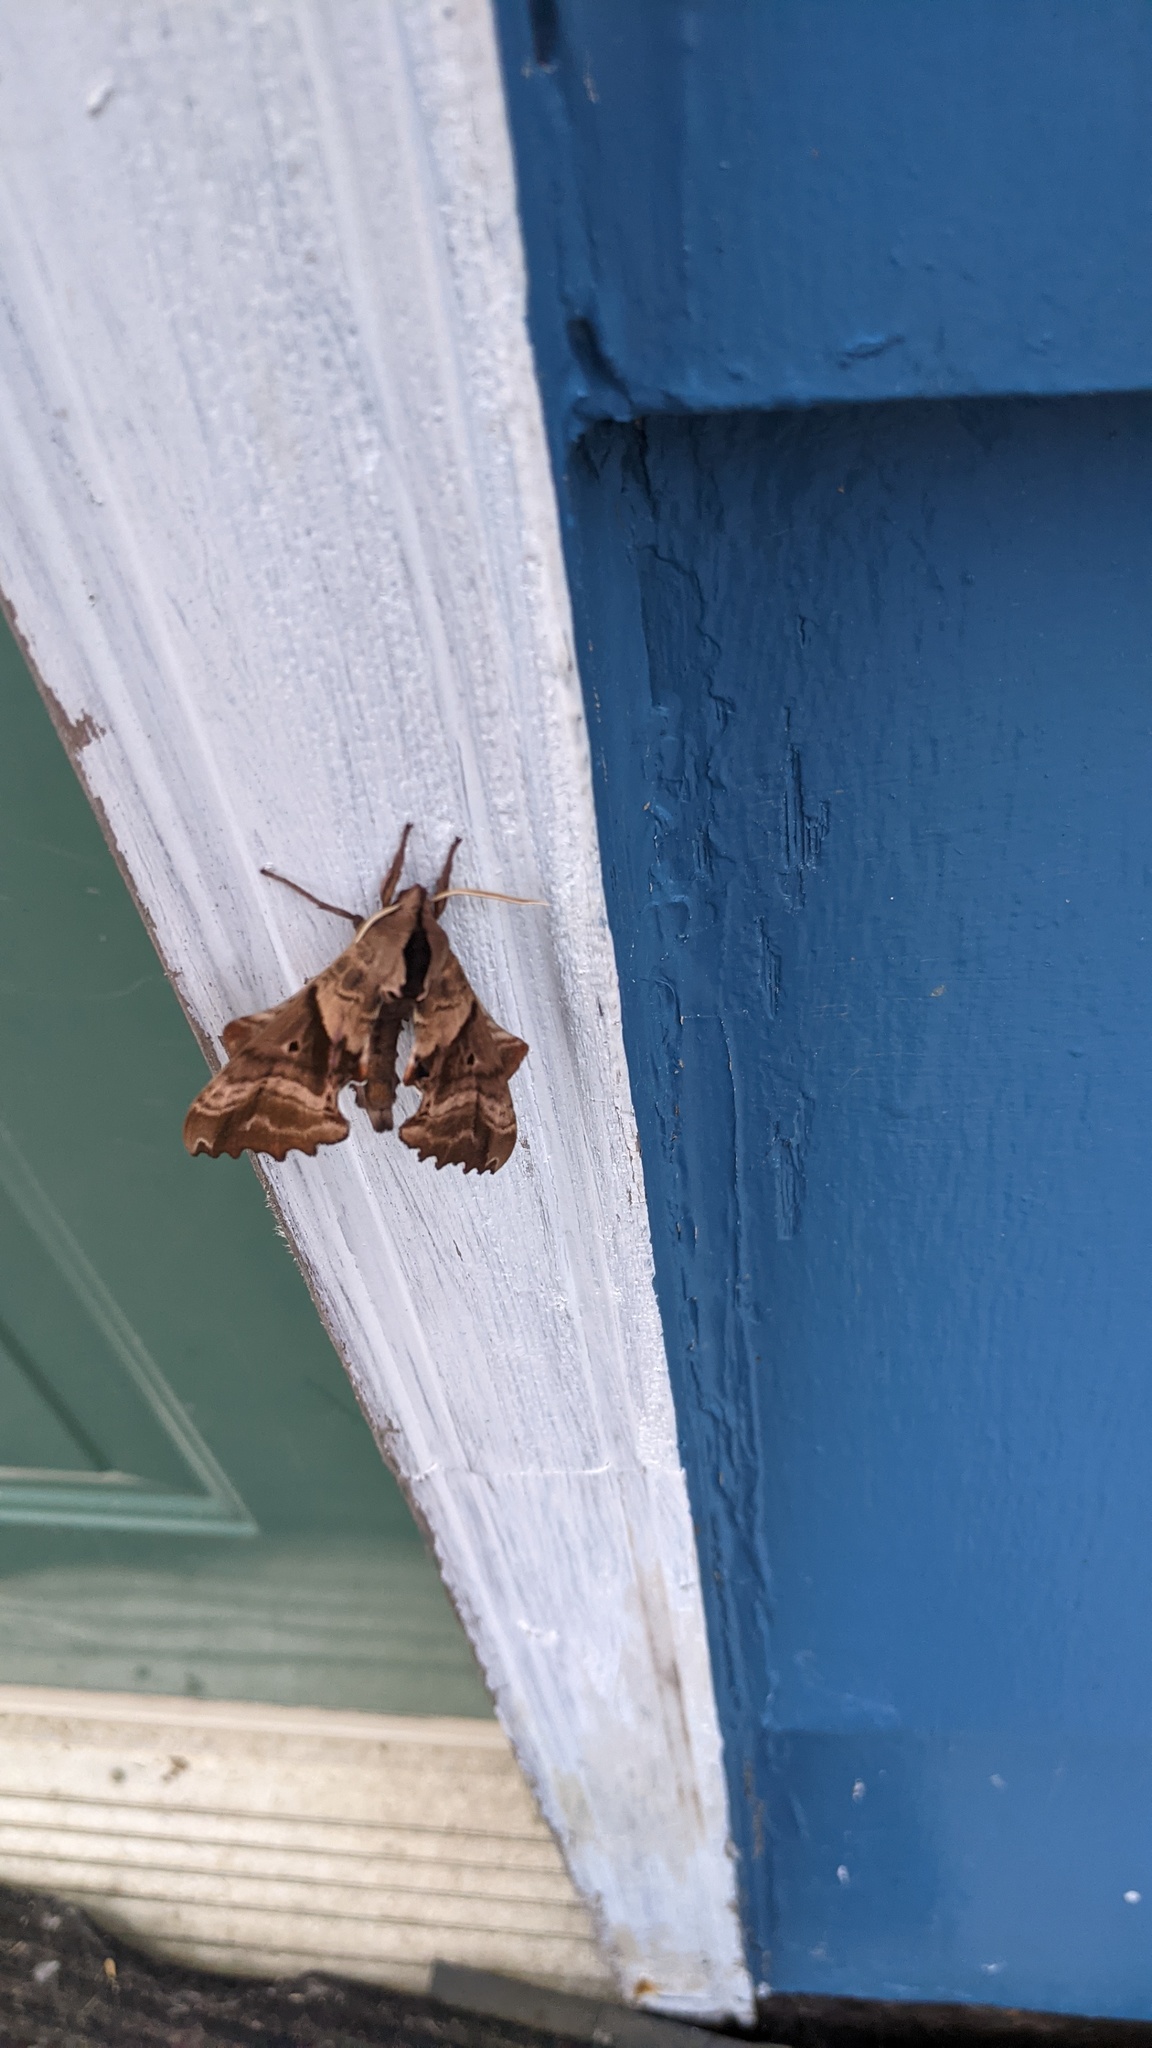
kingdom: Animalia
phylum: Arthropoda
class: Insecta
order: Lepidoptera
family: Sphingidae
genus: Paonias
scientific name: Paonias excaecata
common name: Blind-eyed sphinx
